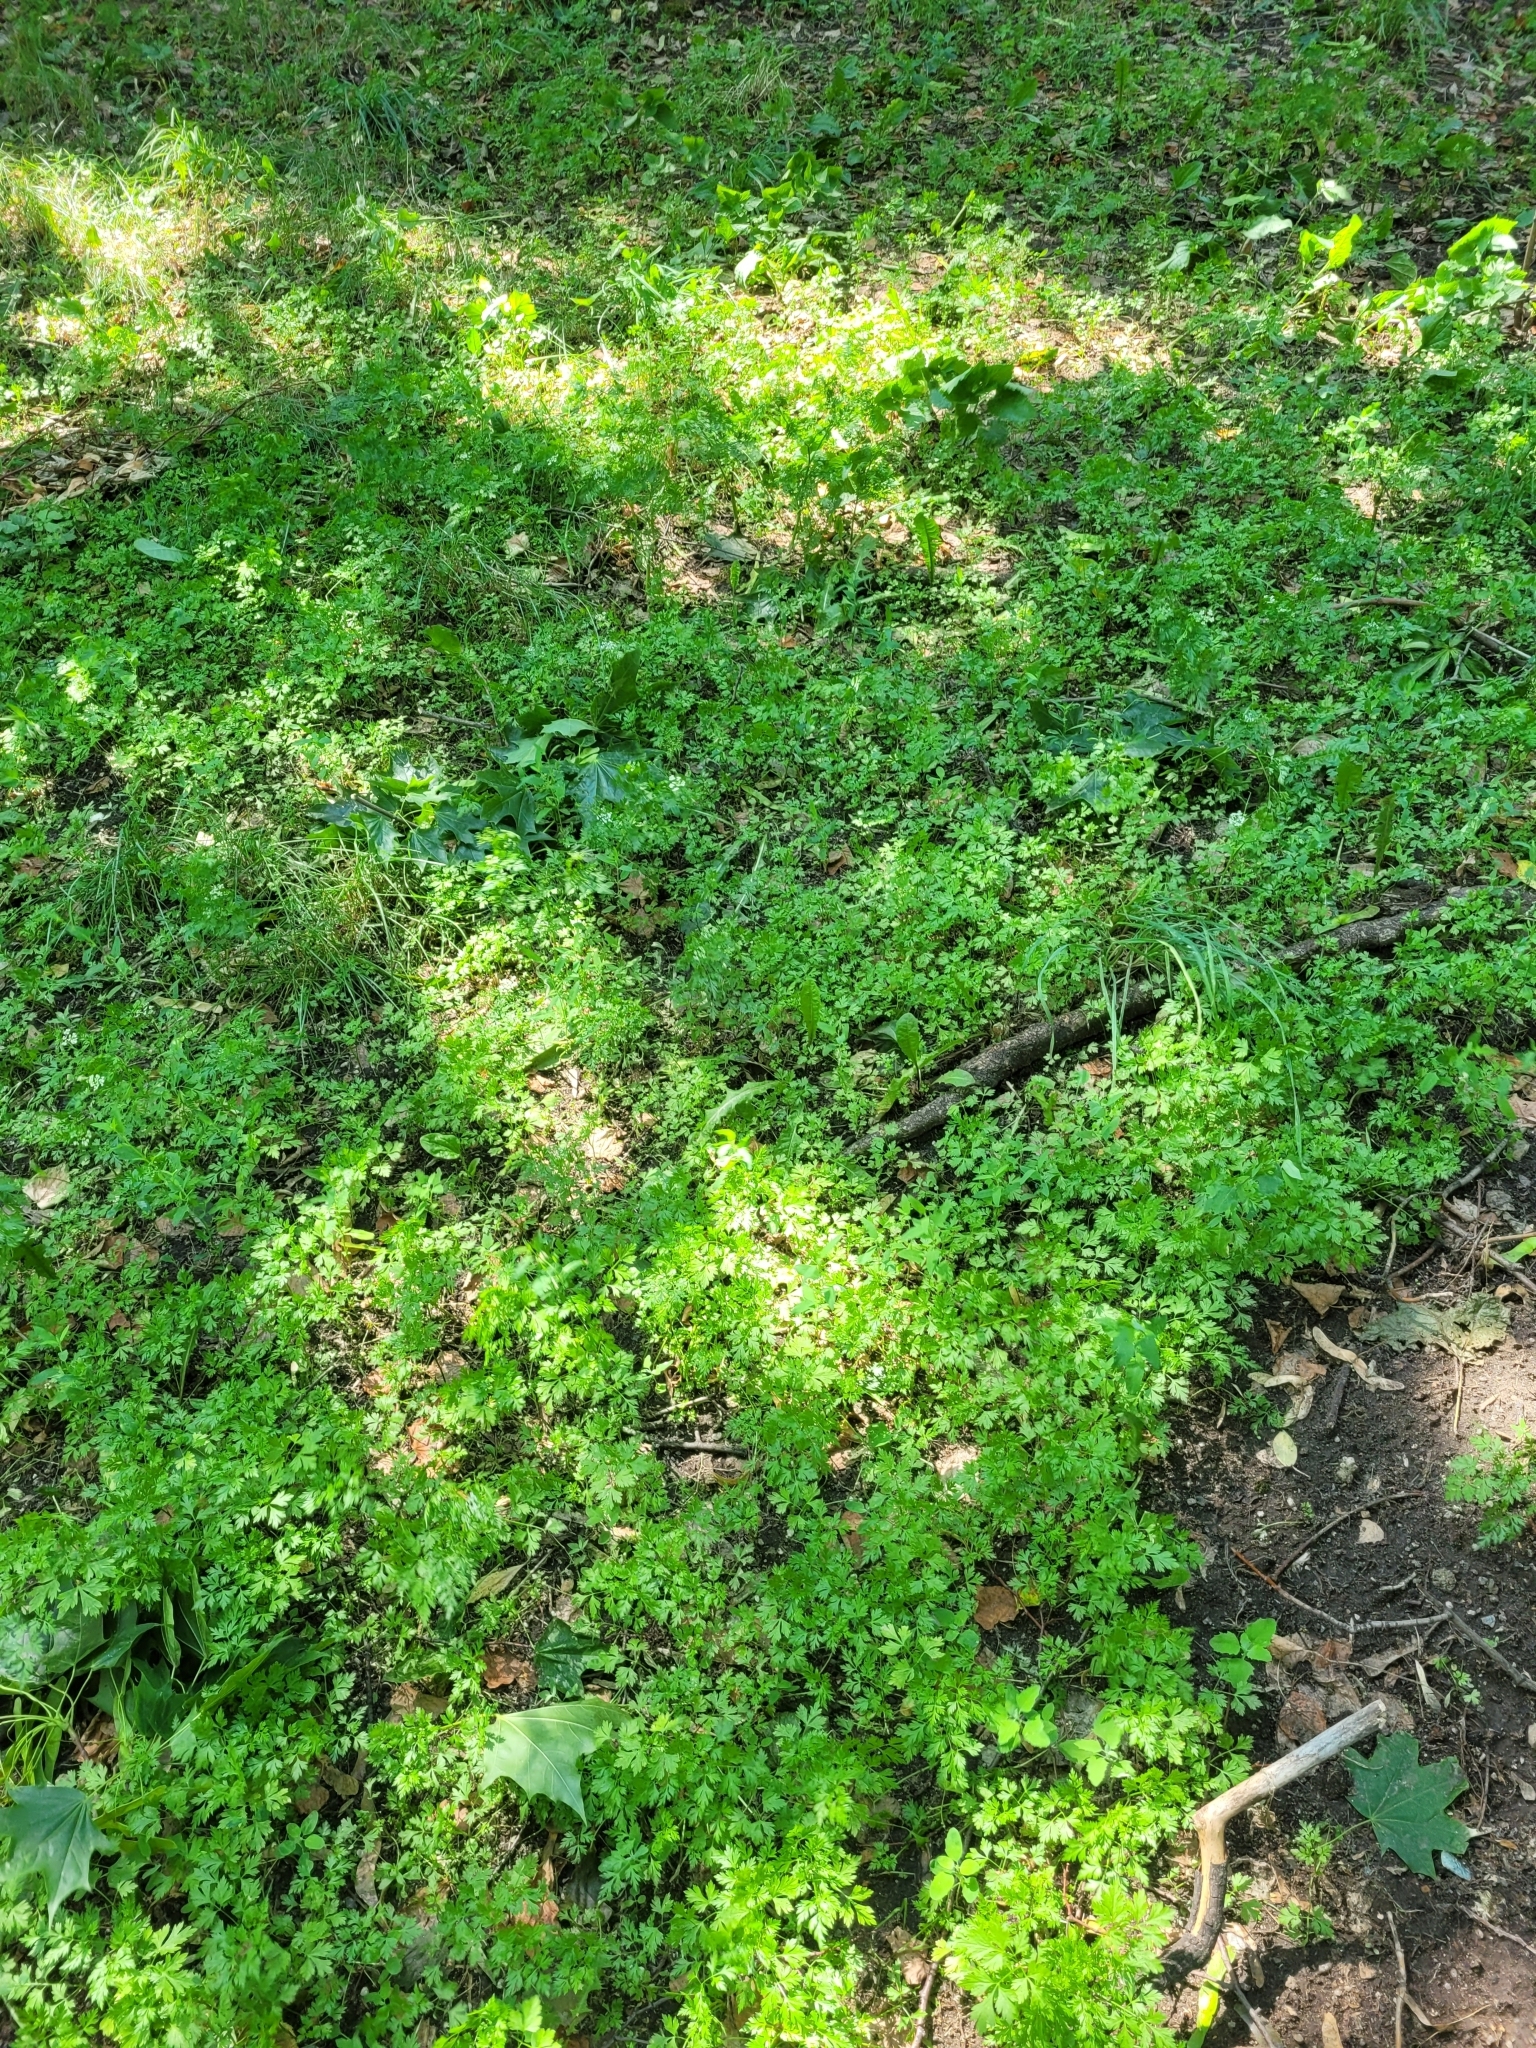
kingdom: Plantae
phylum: Tracheophyta
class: Magnoliopsida
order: Apiales
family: Apiaceae
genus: Aethusa
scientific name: Aethusa cynapium
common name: Fool's parsley
